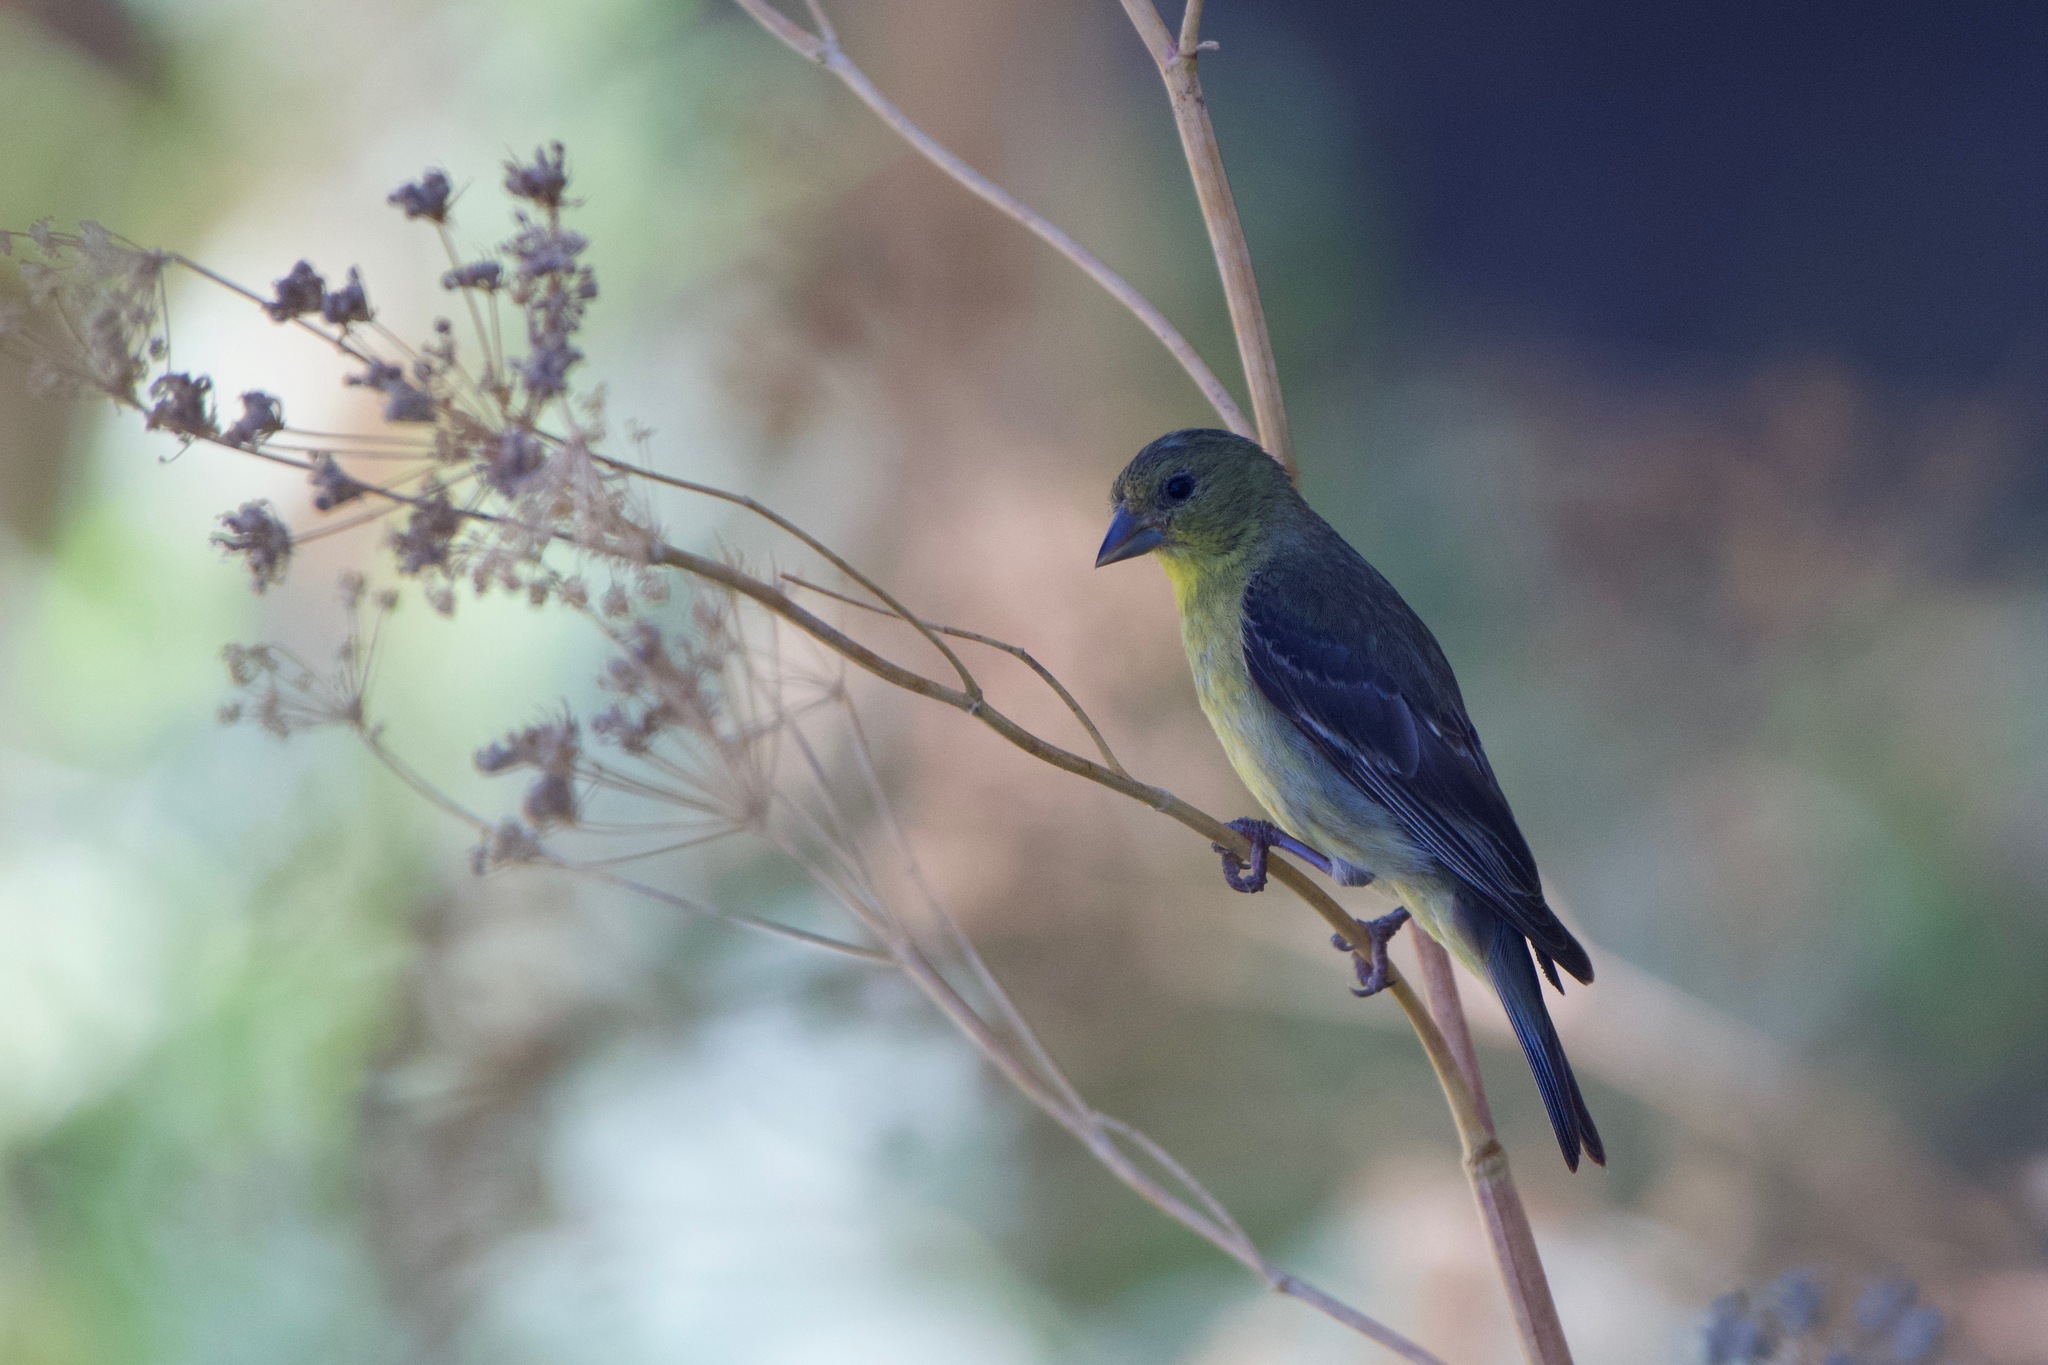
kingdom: Animalia
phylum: Chordata
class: Aves
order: Passeriformes
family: Fringillidae
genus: Spinus
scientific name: Spinus psaltria
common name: Lesser goldfinch
